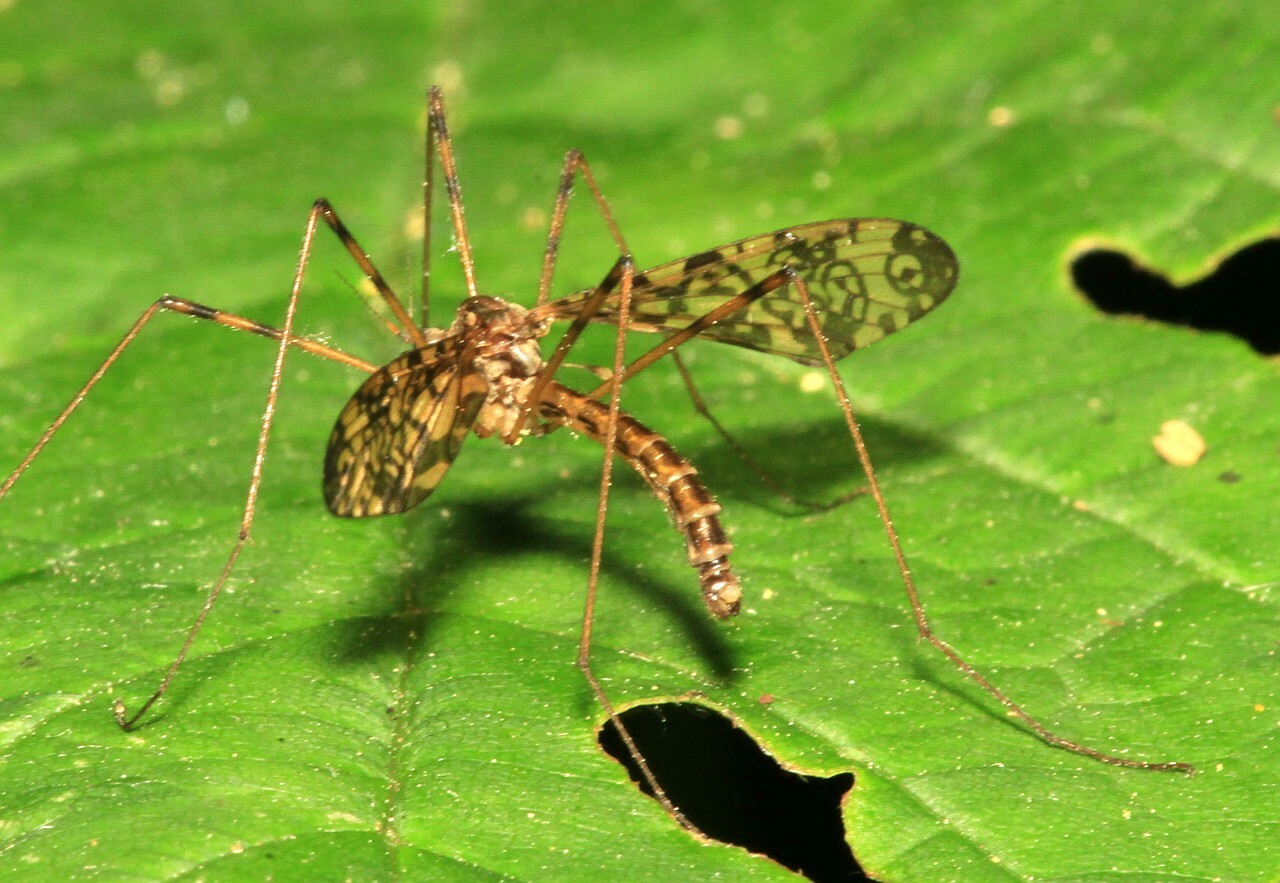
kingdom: Animalia
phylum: Arthropoda
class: Insecta
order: Diptera
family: Limoniidae
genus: Epiphragma
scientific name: Epiphragma ocellare
